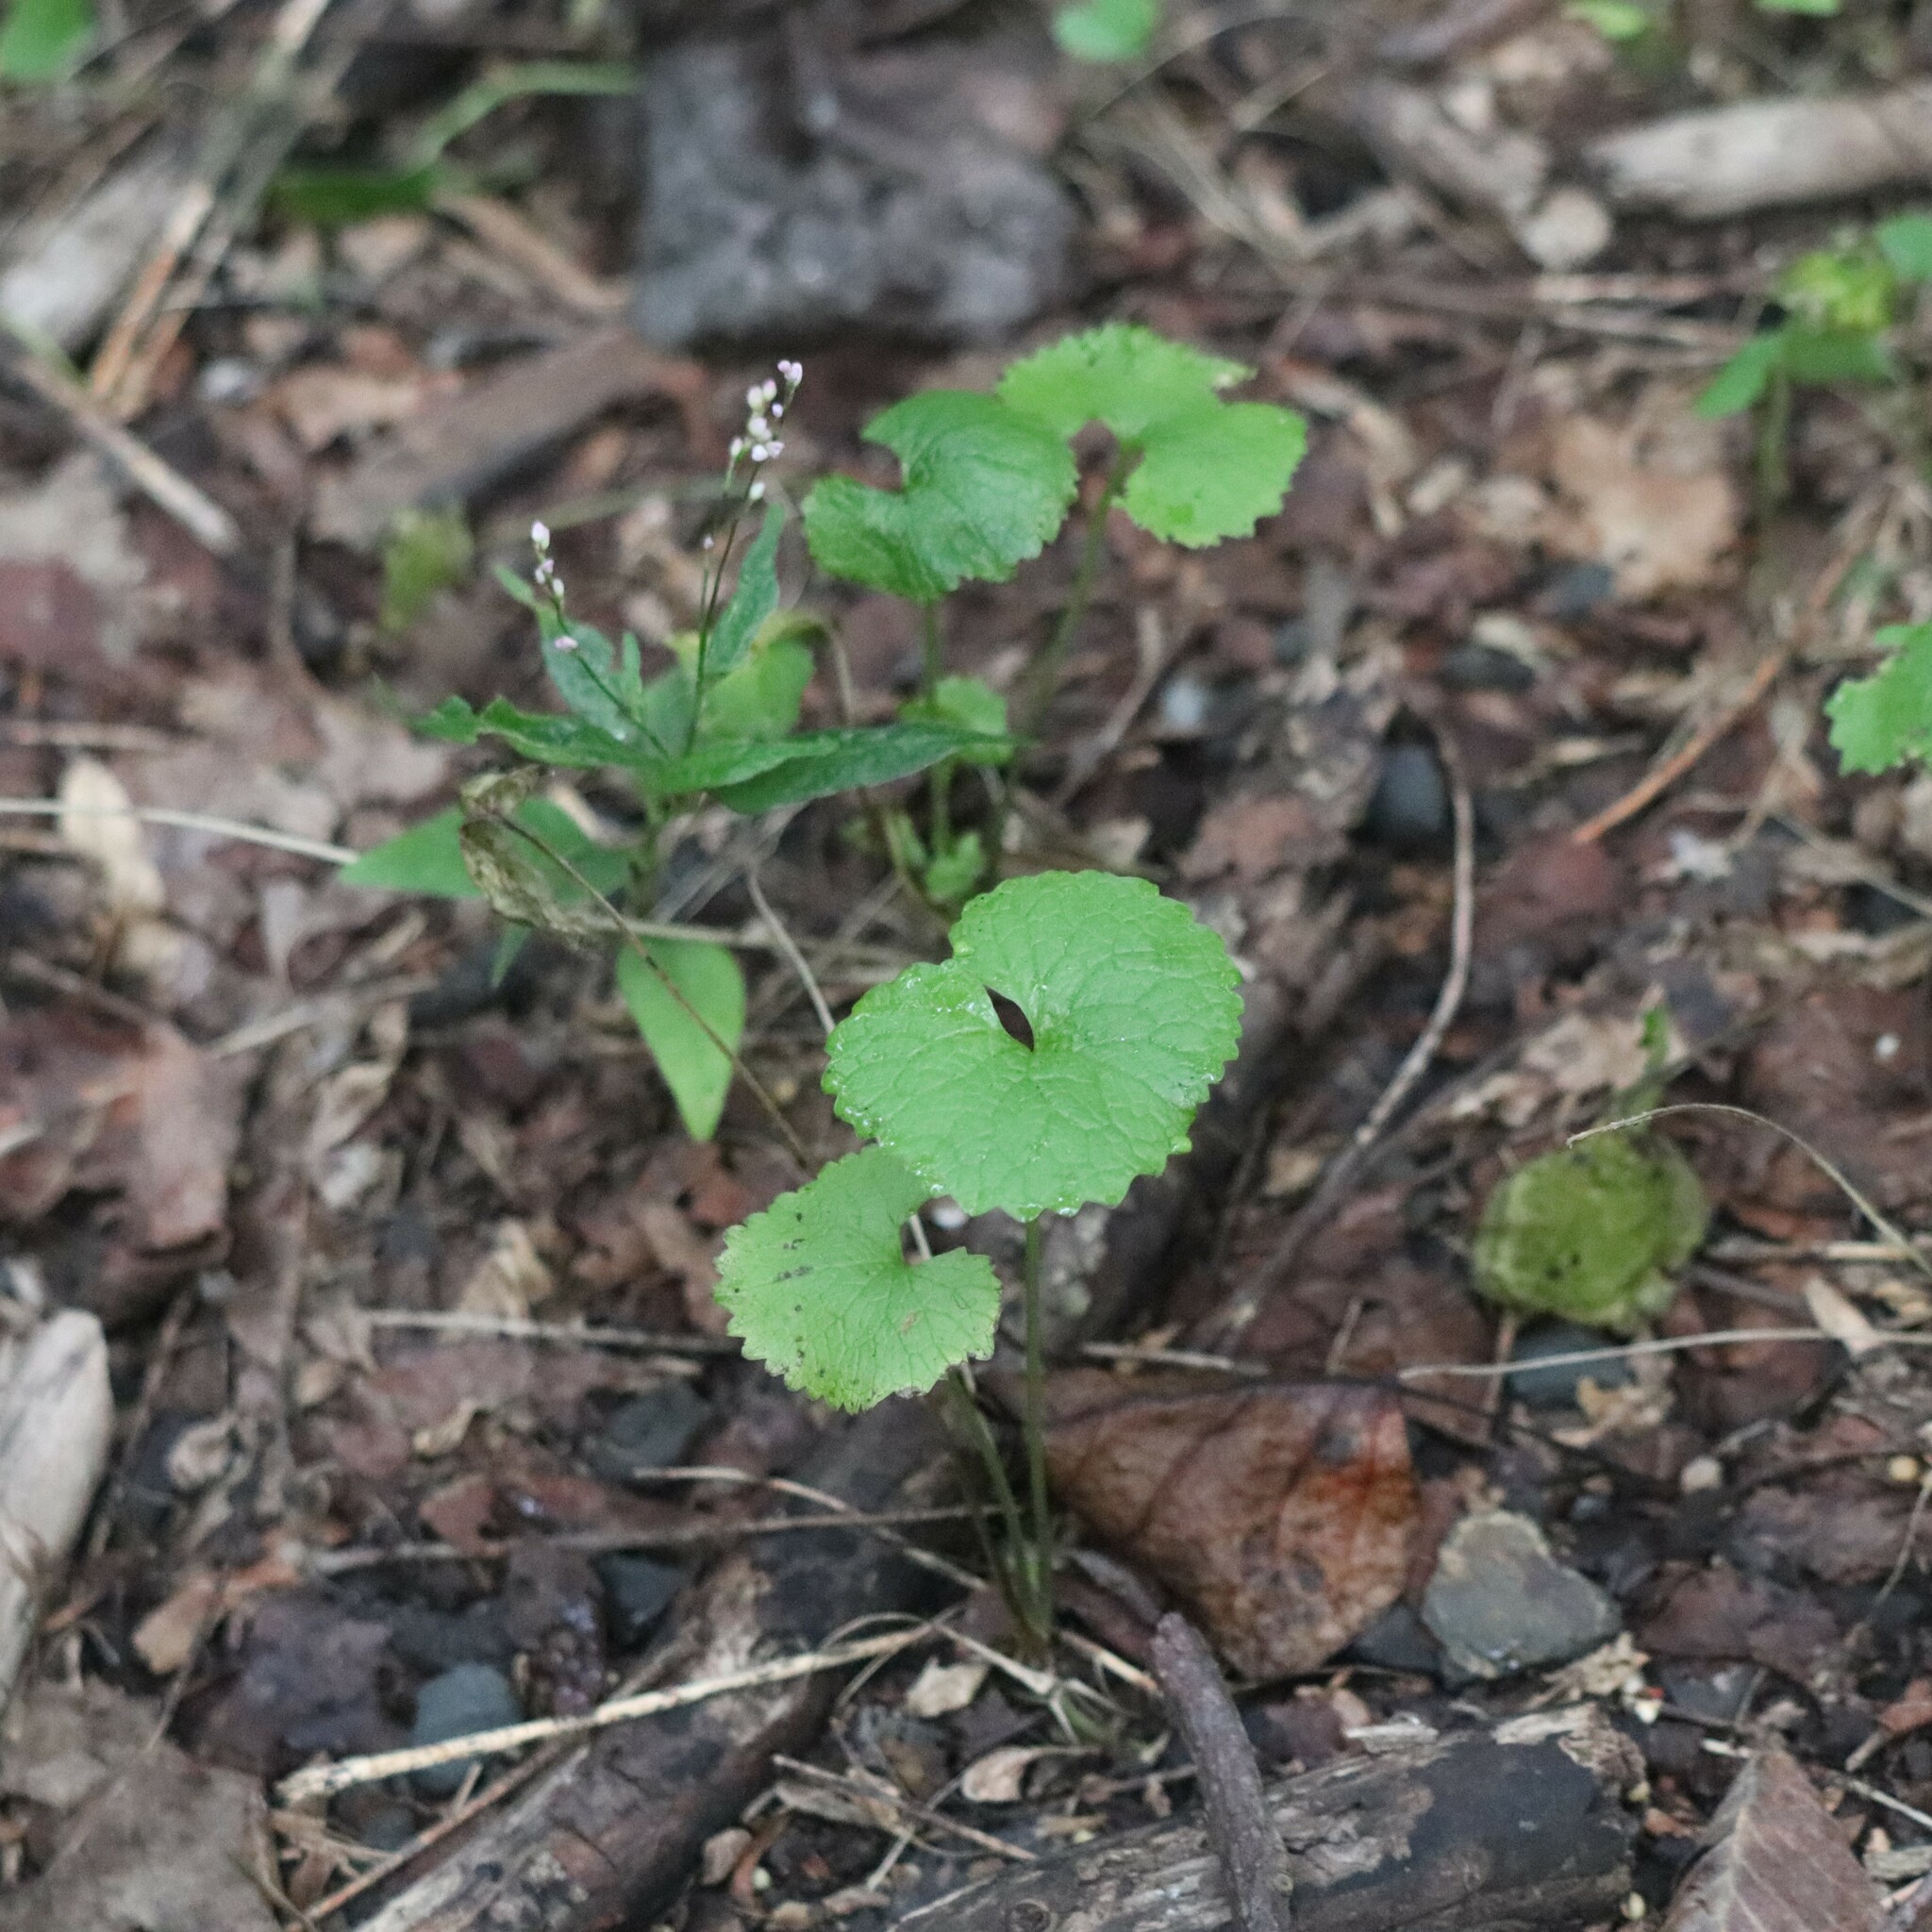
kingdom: Plantae
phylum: Tracheophyta
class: Magnoliopsida
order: Brassicales
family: Brassicaceae
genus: Alliaria
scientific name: Alliaria petiolata
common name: Garlic mustard
